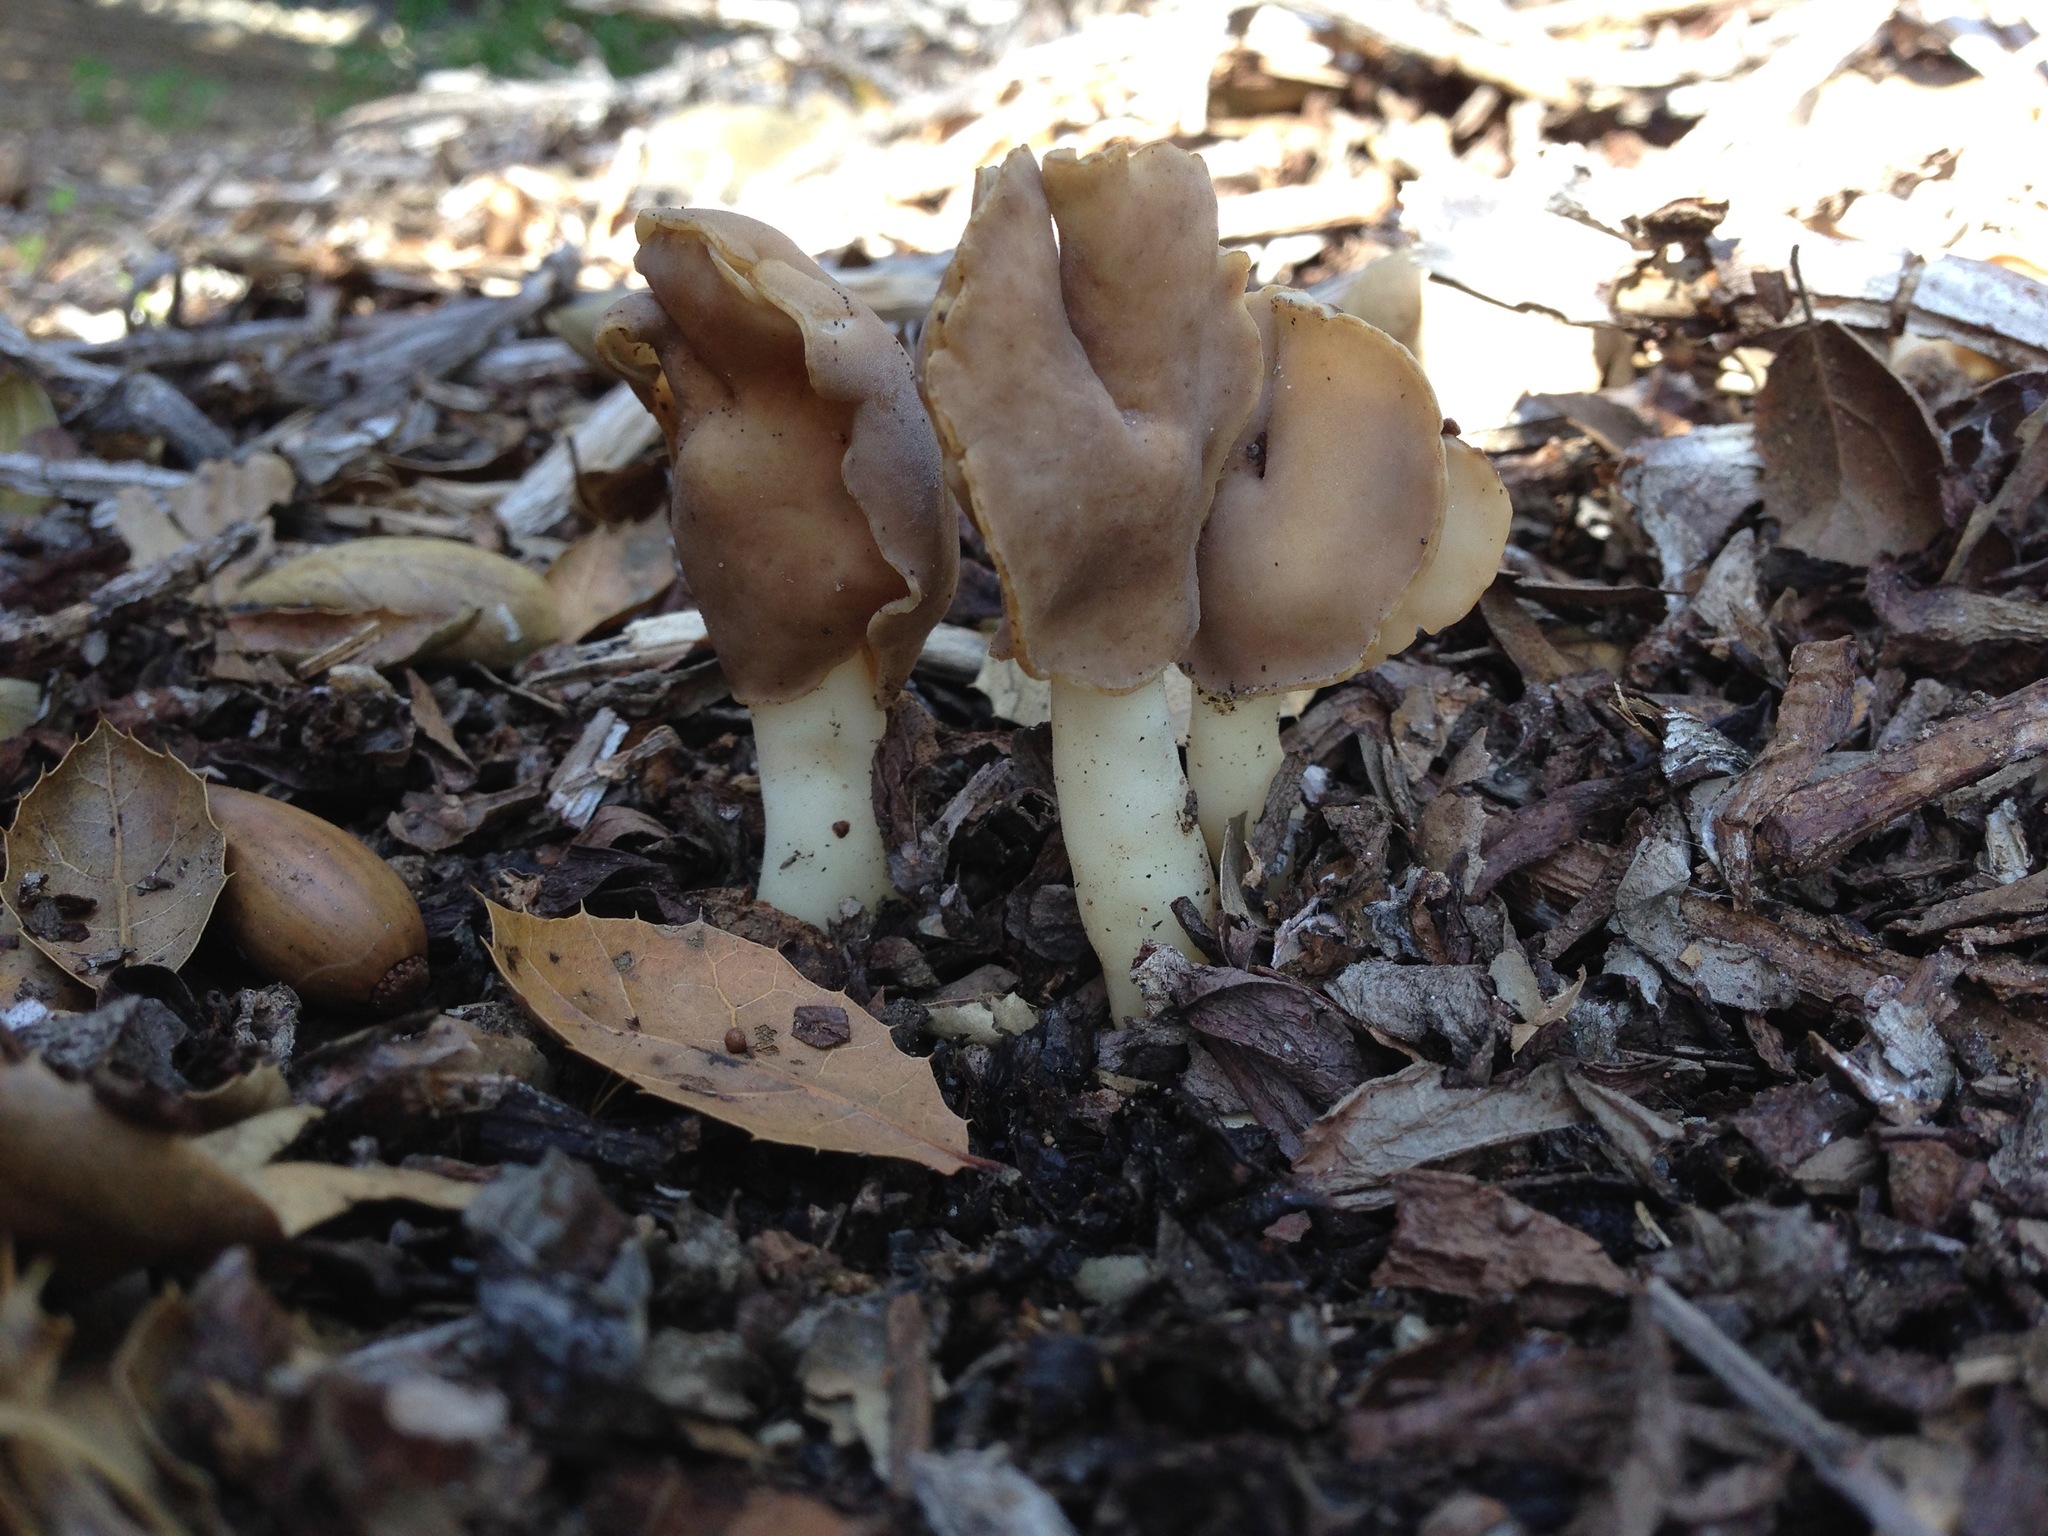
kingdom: Fungi
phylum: Ascomycota
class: Pezizomycetes
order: Pezizales
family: Helvellaceae
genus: Helvella
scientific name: Helvella compressa
